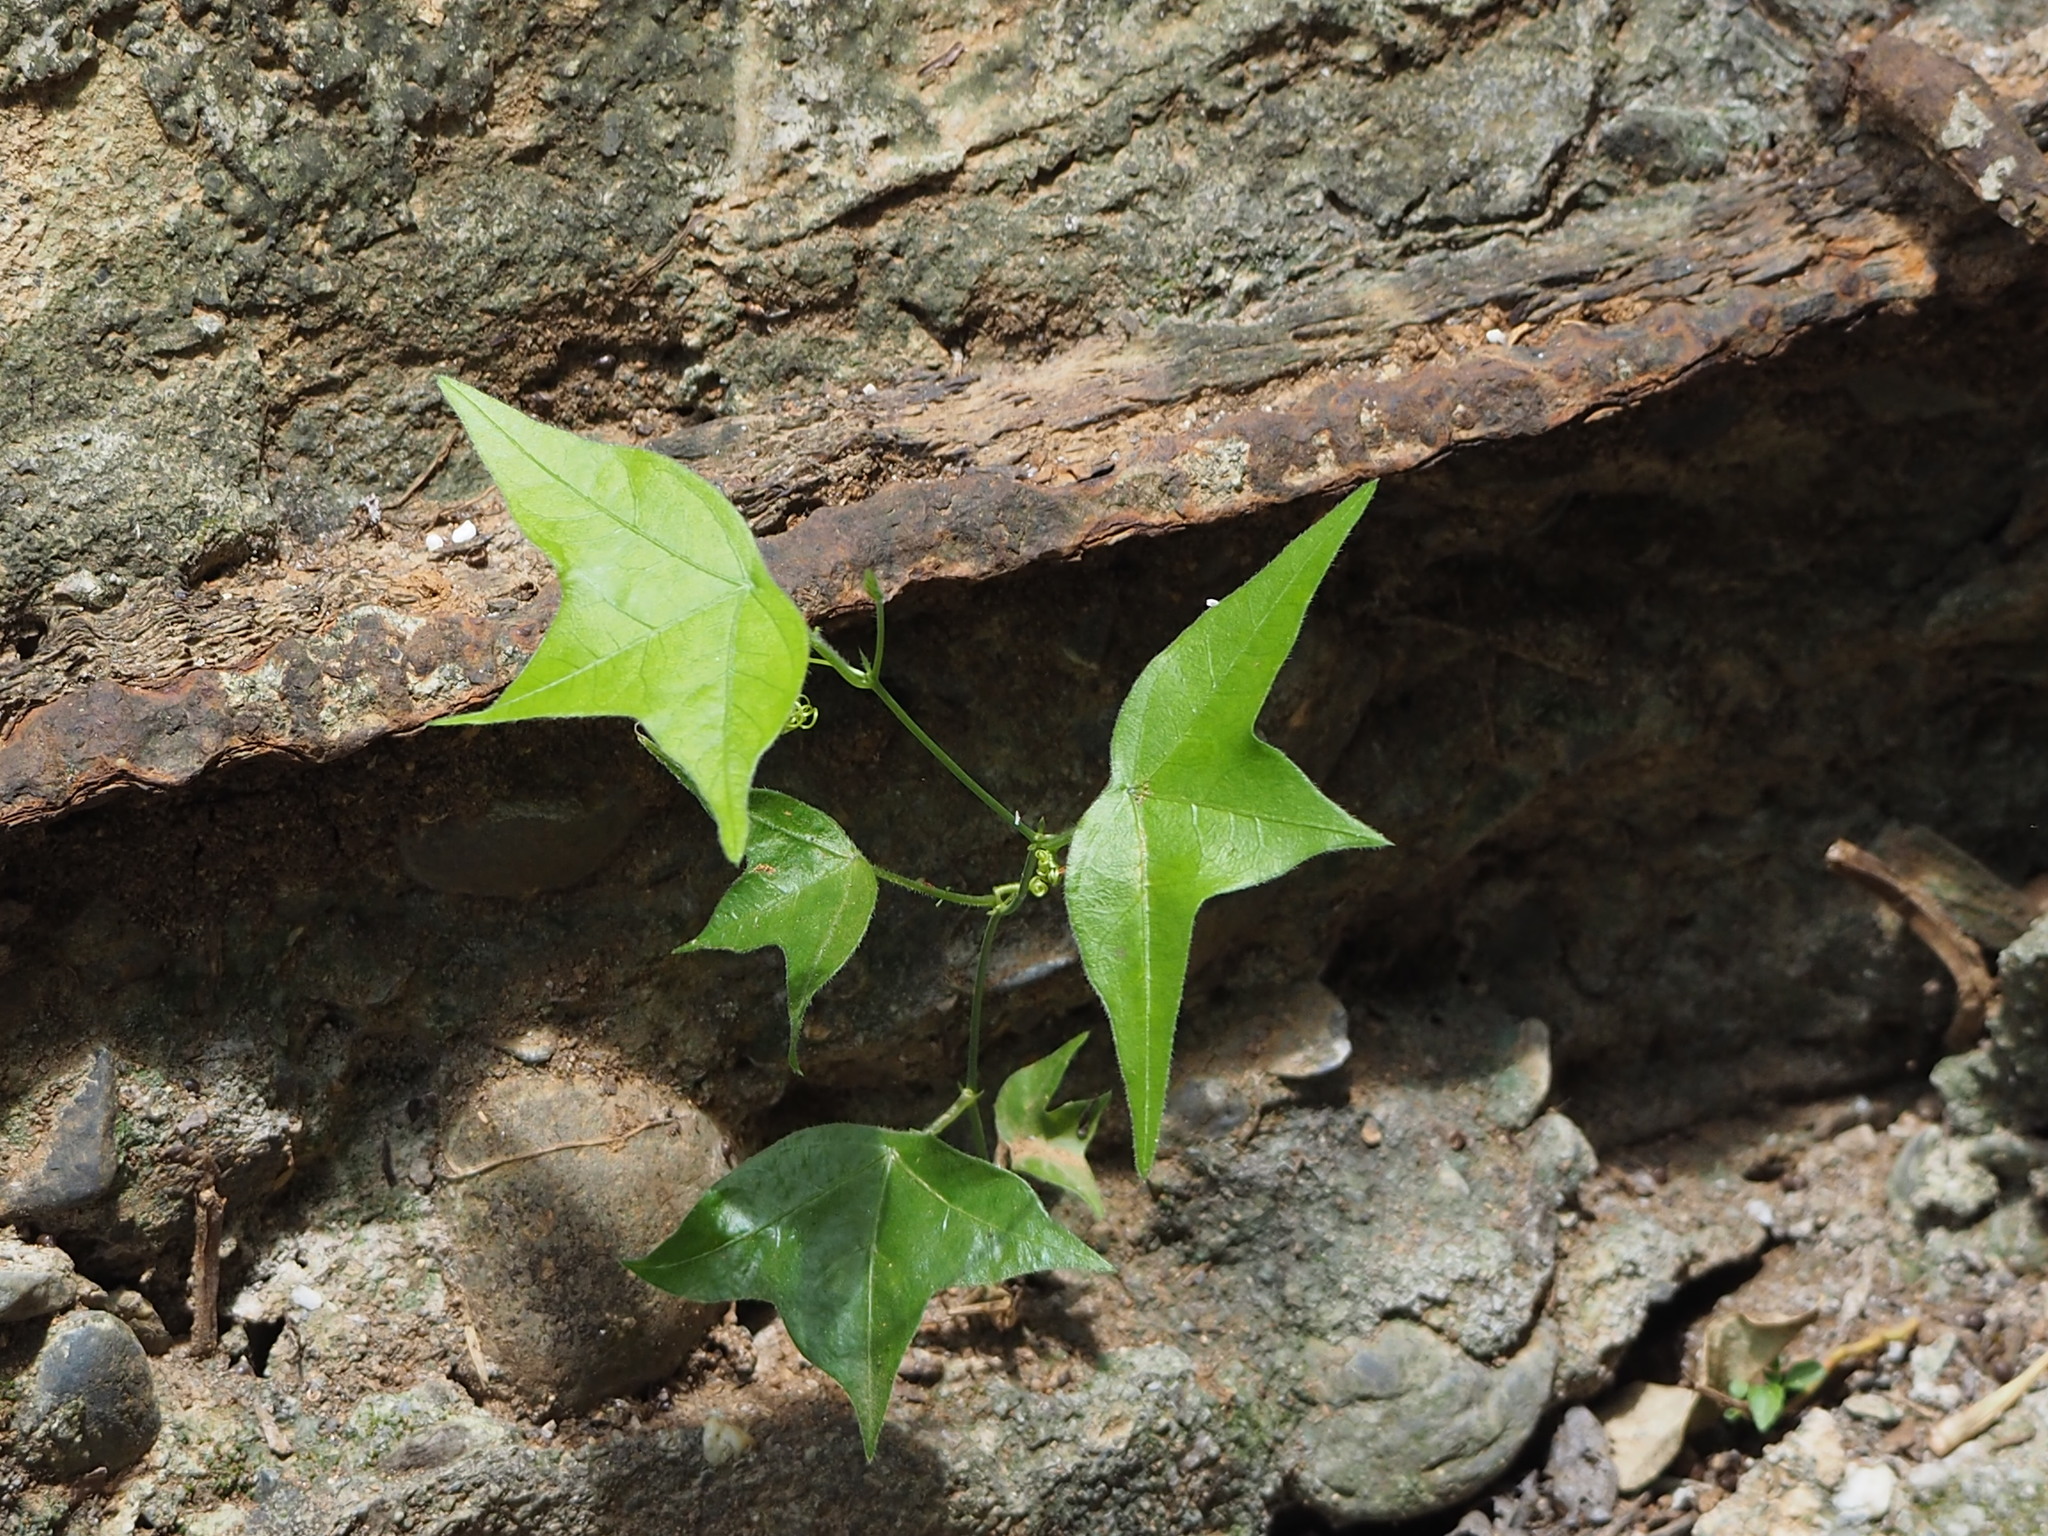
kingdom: Plantae
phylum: Tracheophyta
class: Magnoliopsida
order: Malpighiales
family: Passifloraceae
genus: Passiflora
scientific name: Passiflora suberosa
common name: Wild passionfruit
